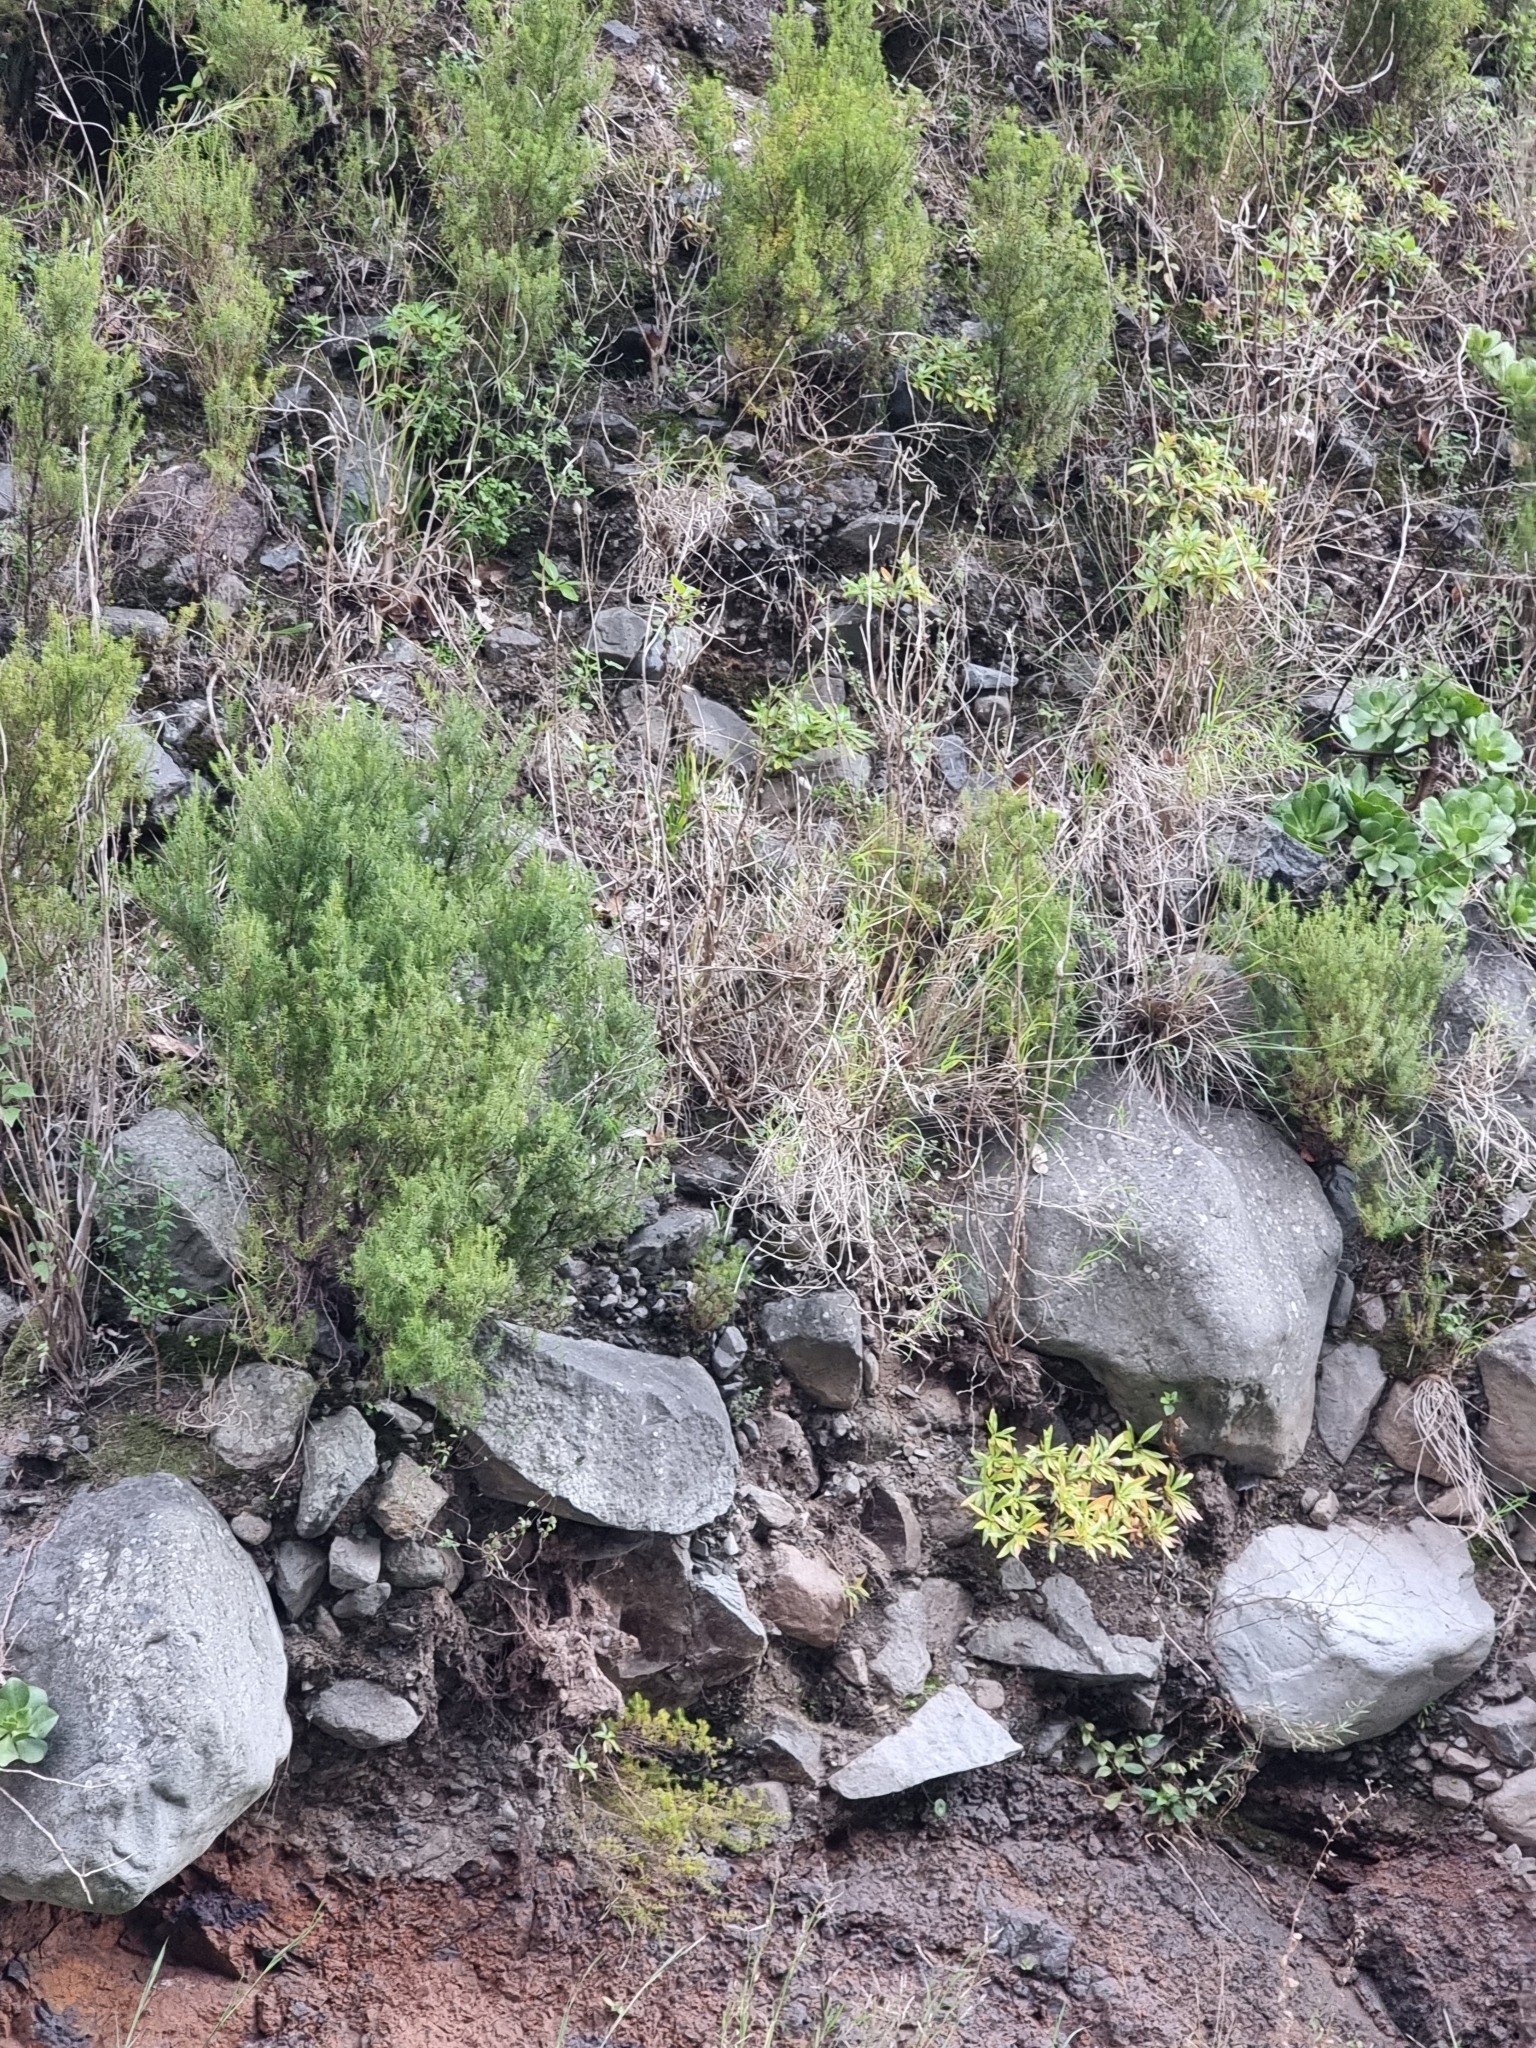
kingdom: Plantae
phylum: Tracheophyta
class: Magnoliopsida
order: Ericales
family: Ericaceae
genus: Erica
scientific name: Erica platycodon
